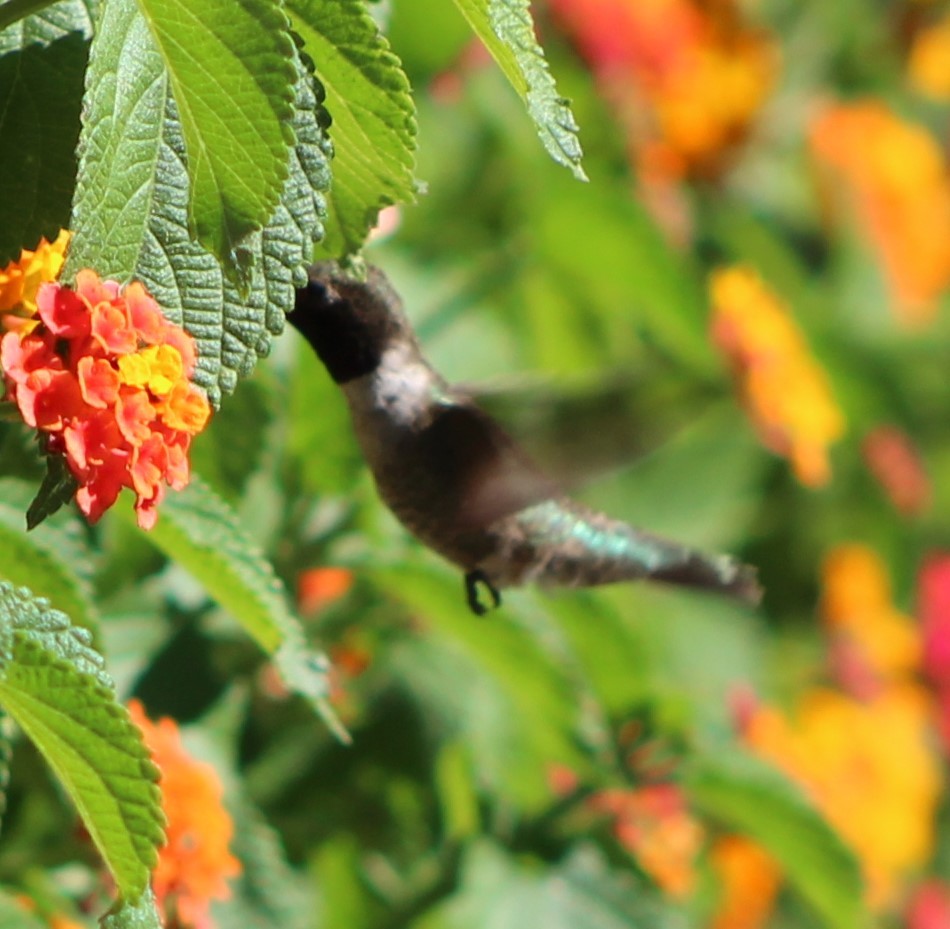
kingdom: Animalia
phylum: Chordata
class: Aves
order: Apodiformes
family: Trochilidae
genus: Archilochus
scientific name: Archilochus alexandri
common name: Black-chinned hummingbird
